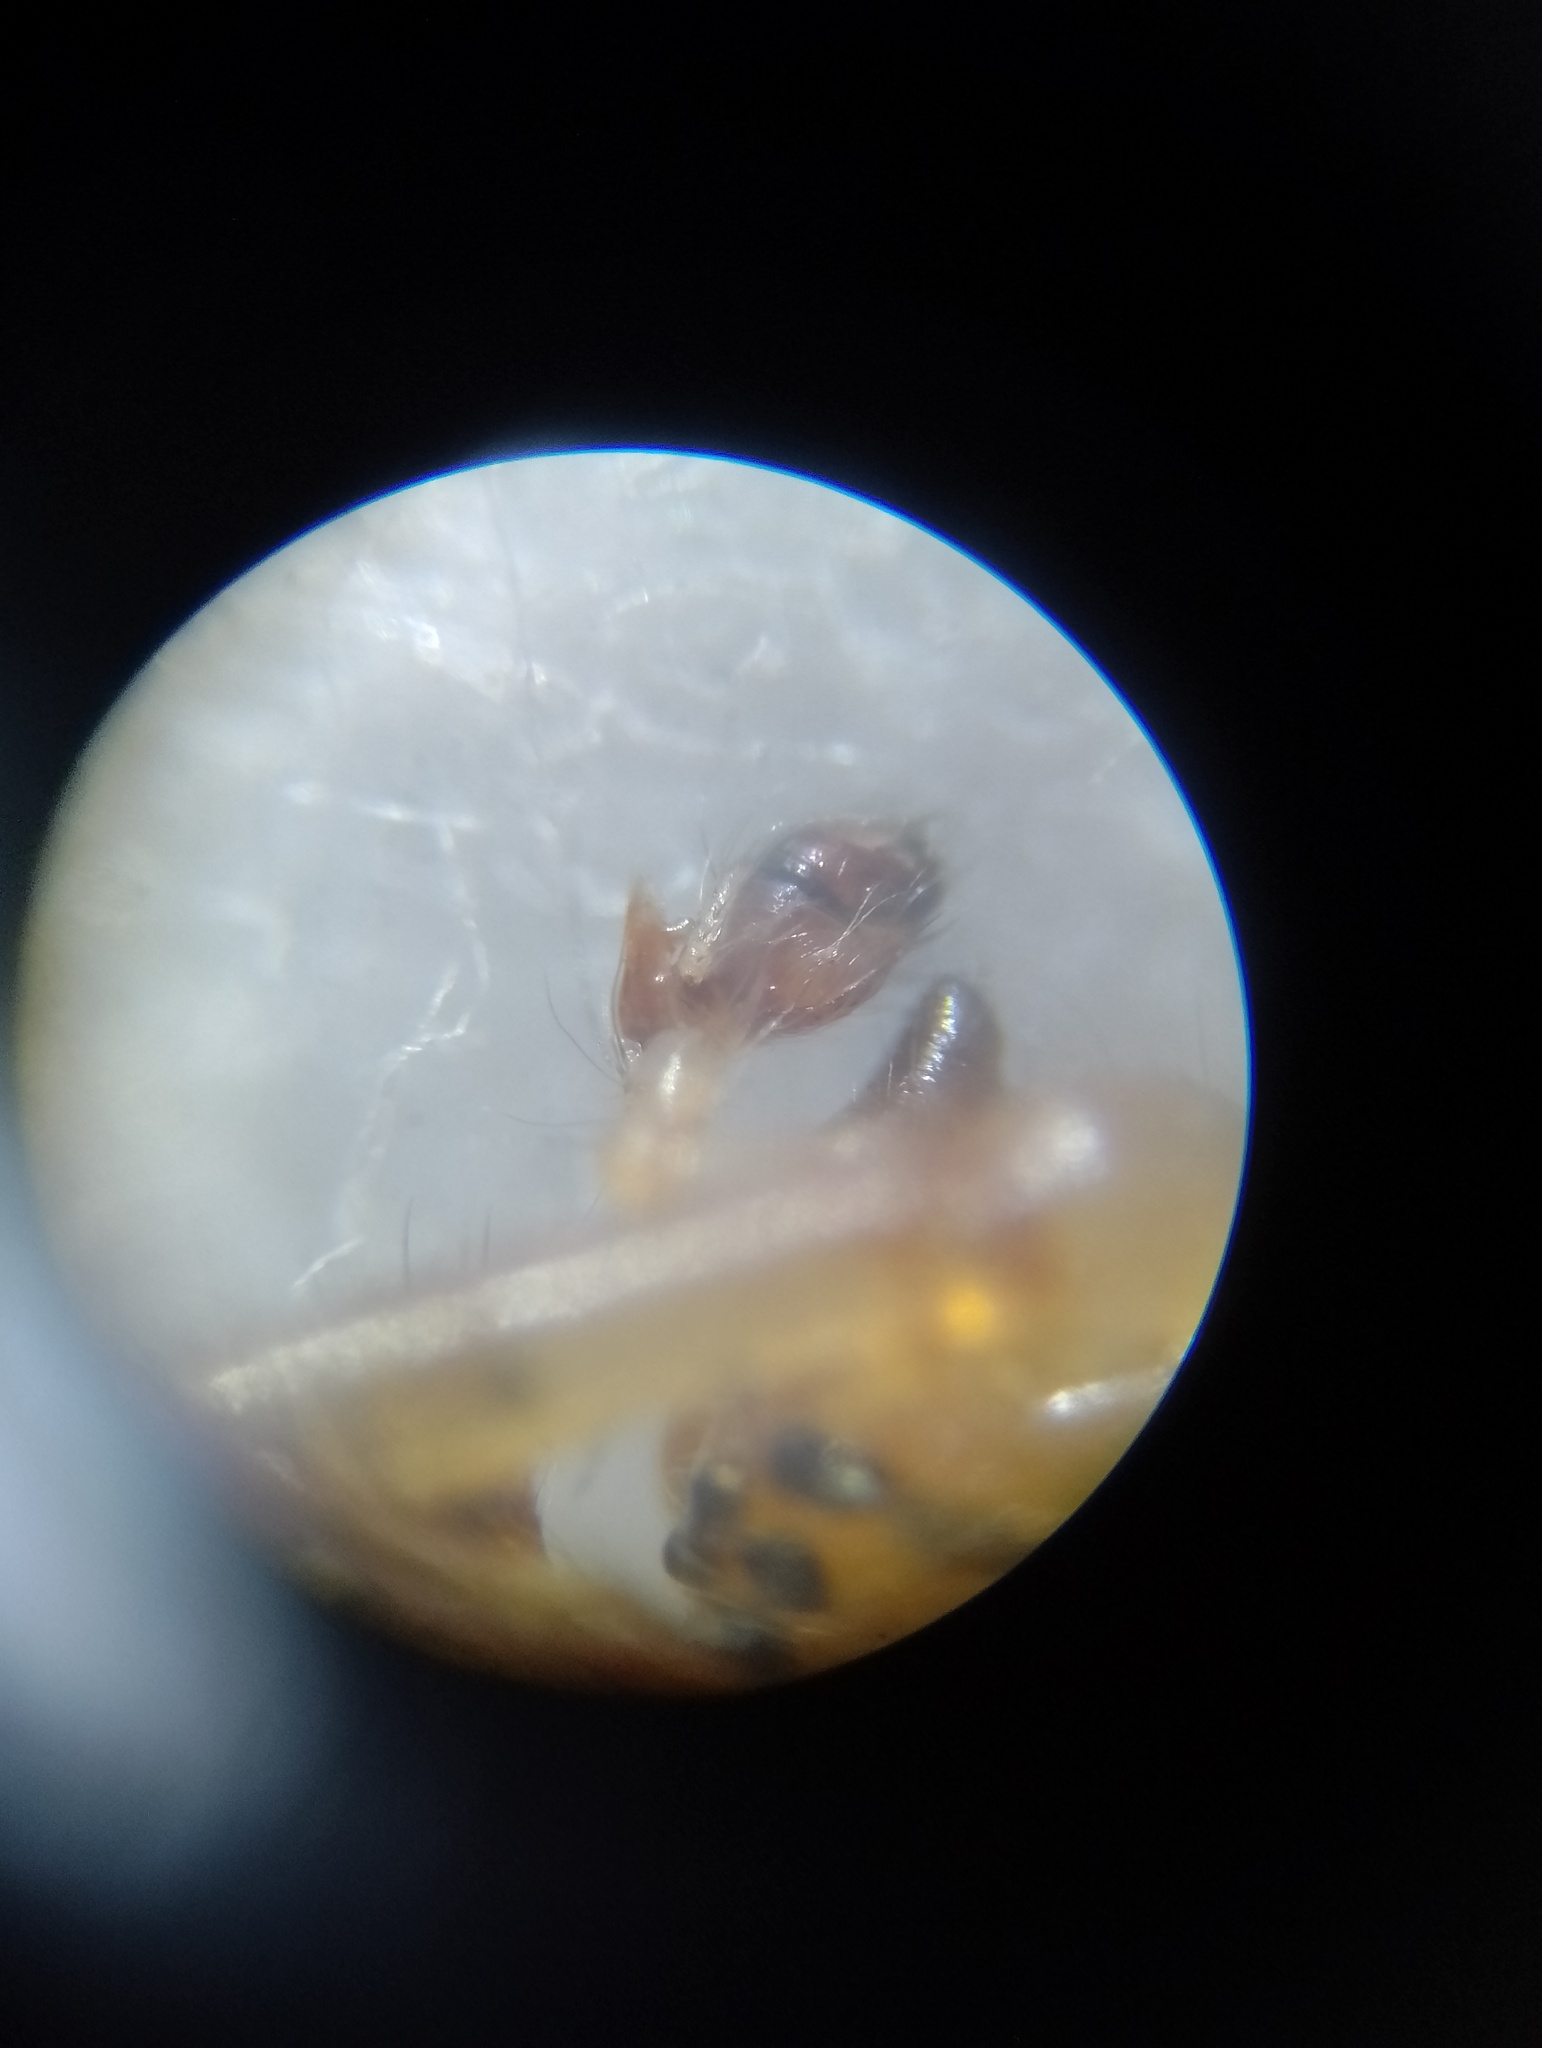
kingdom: Animalia
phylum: Arthropoda
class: Arachnida
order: Araneae
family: Tetragnathidae
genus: Metellina
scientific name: Metellina mengei
